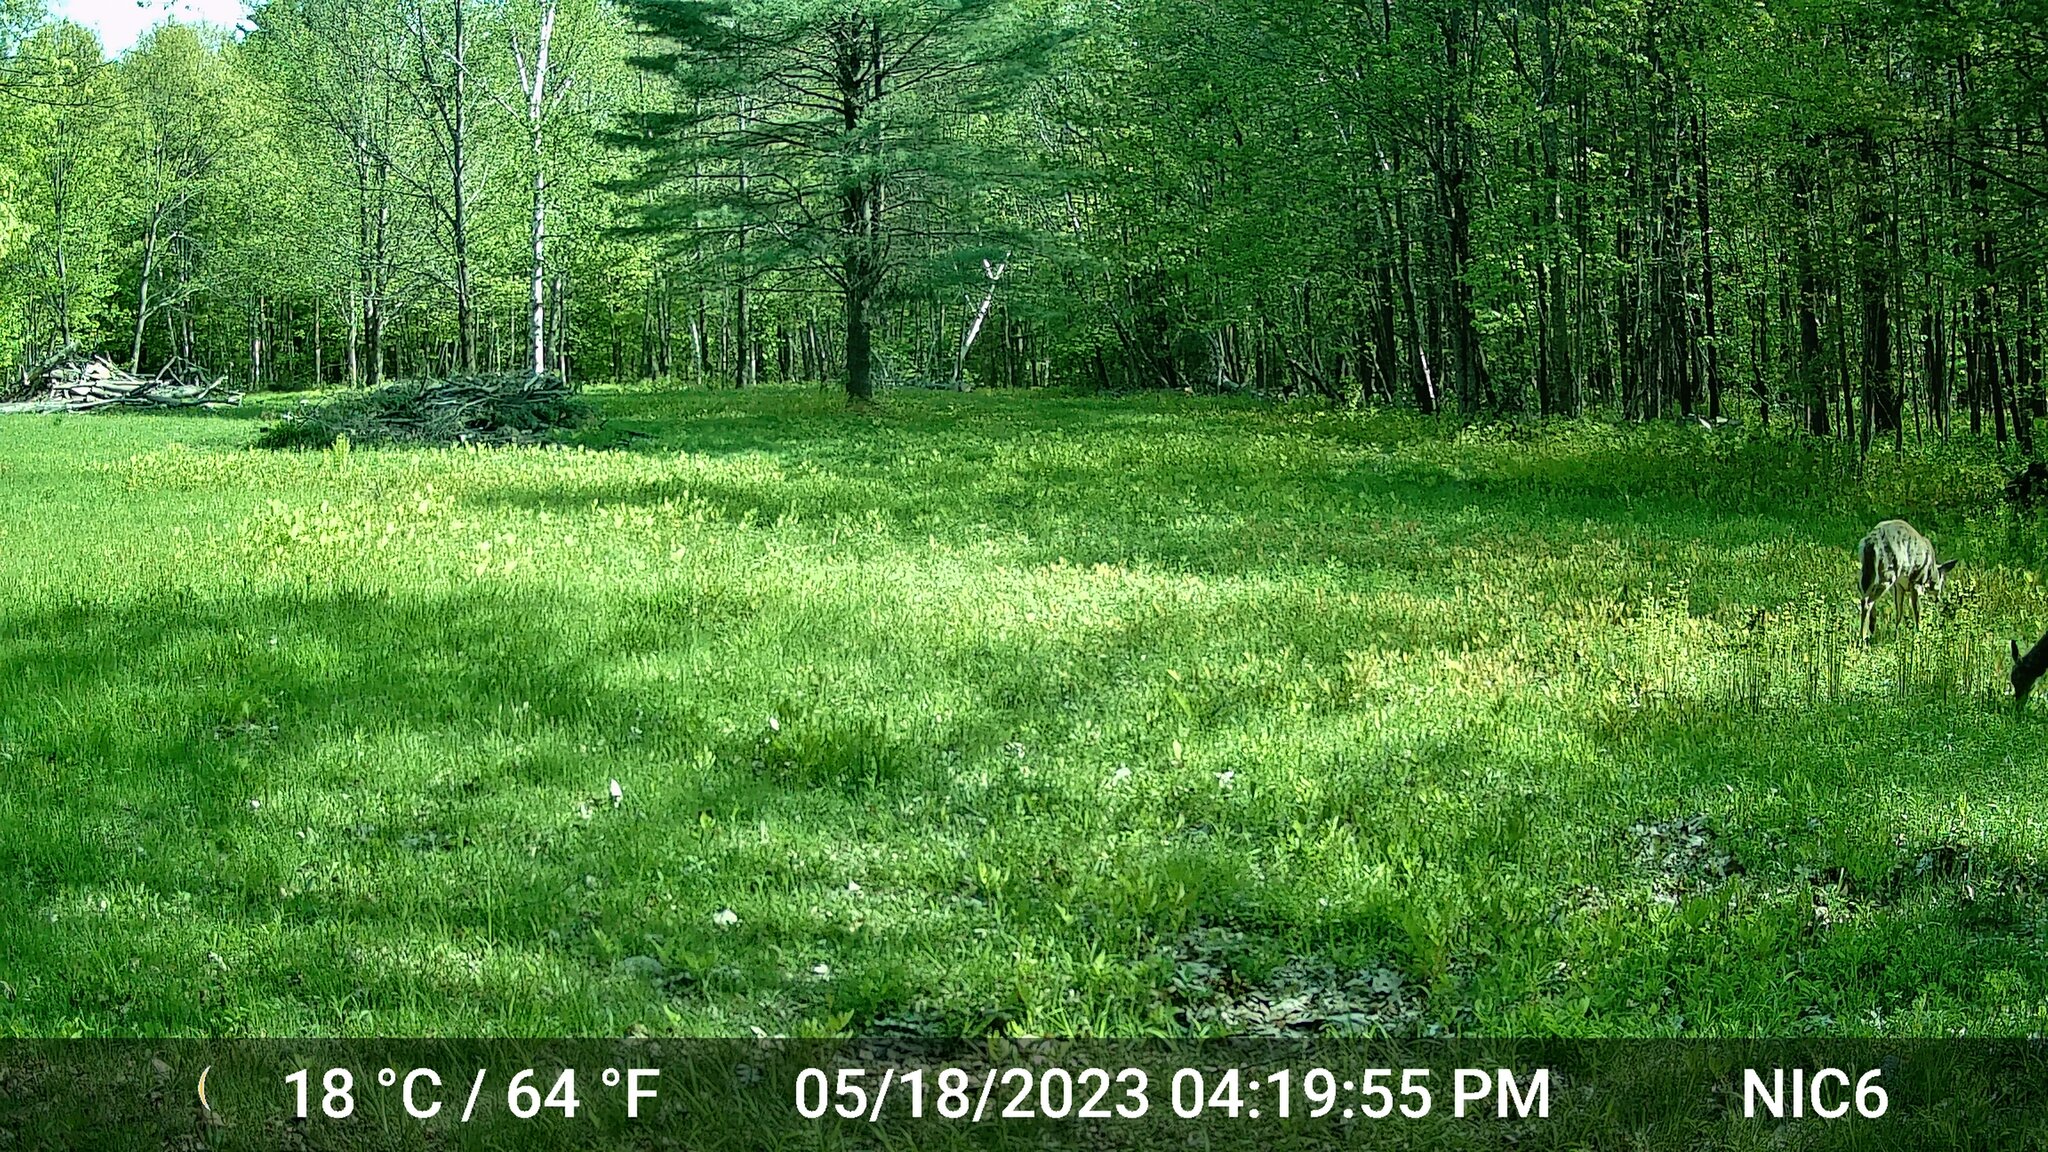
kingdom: Animalia
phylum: Chordata
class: Mammalia
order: Artiodactyla
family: Cervidae
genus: Odocoileus
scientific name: Odocoileus virginianus
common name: White-tailed deer
